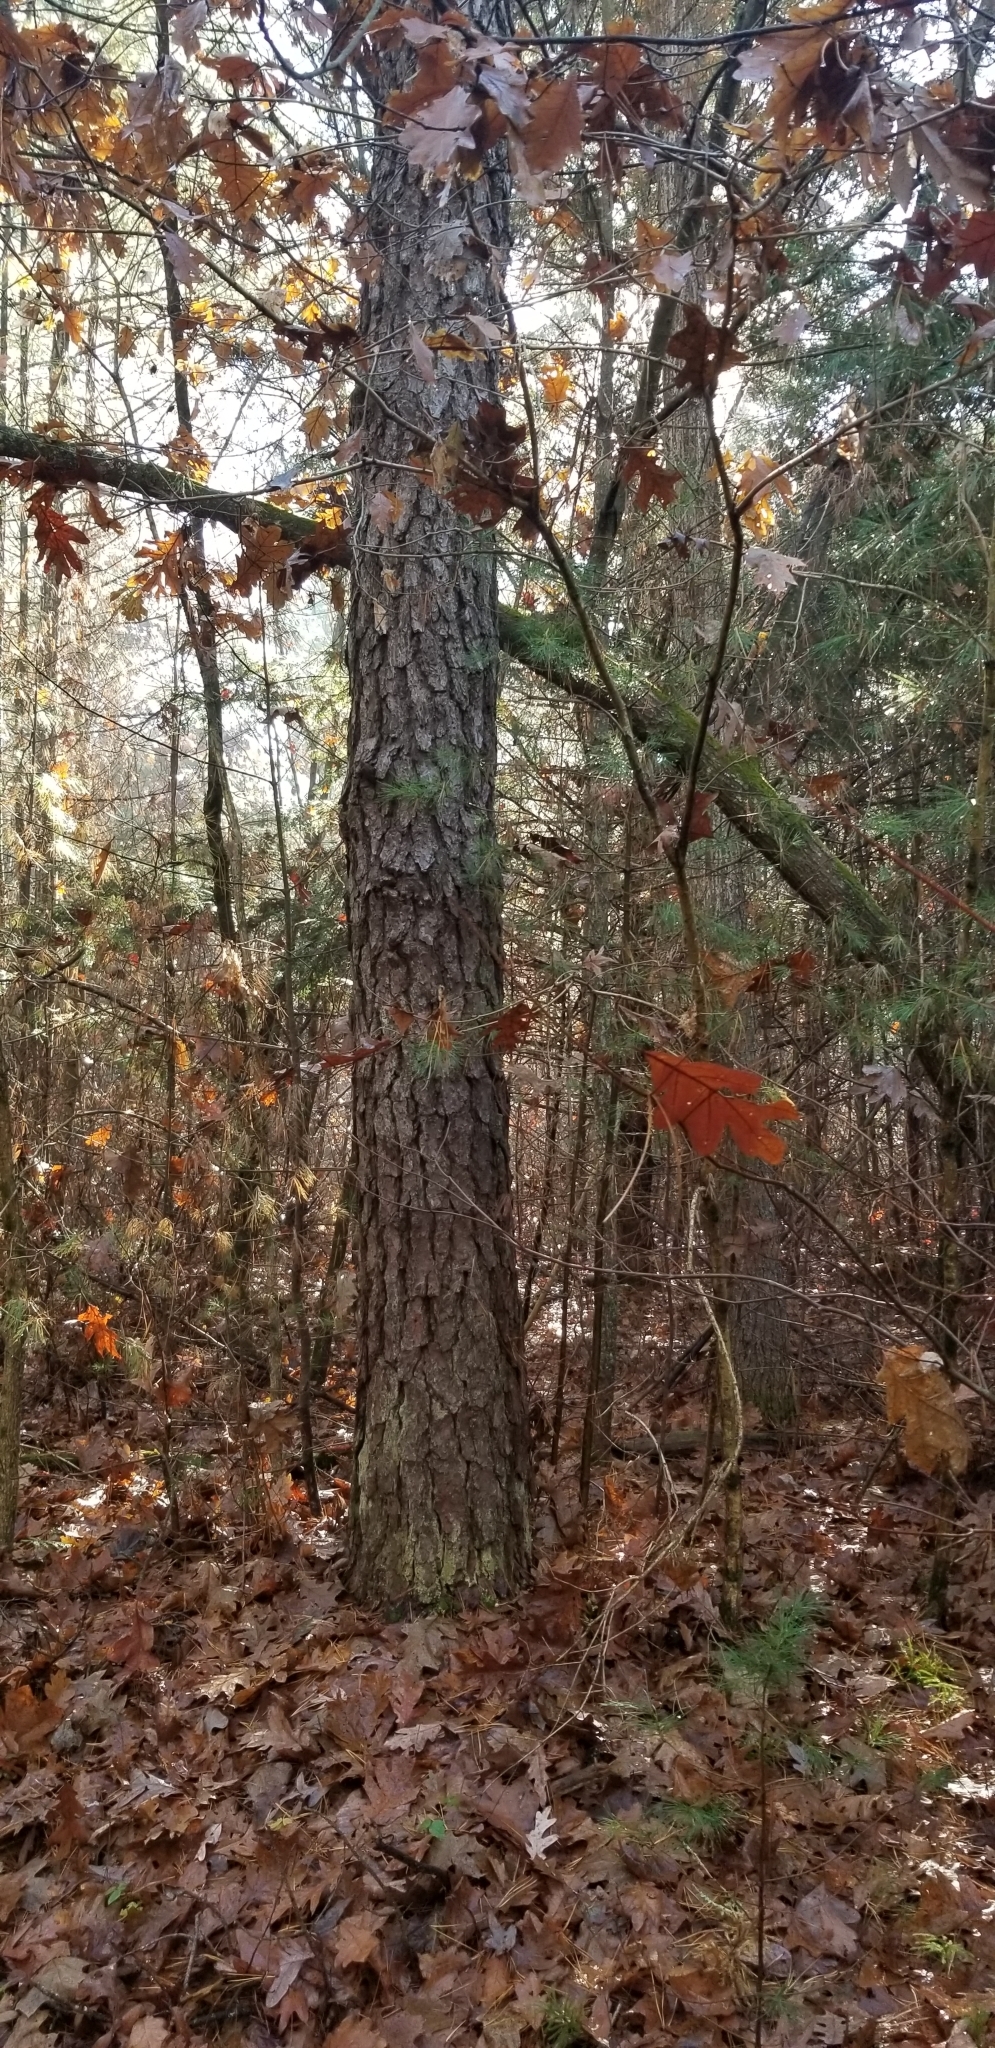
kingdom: Plantae
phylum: Tracheophyta
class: Pinopsida
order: Pinales
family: Pinaceae
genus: Pinus
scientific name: Pinus rigida
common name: Pitch pine
